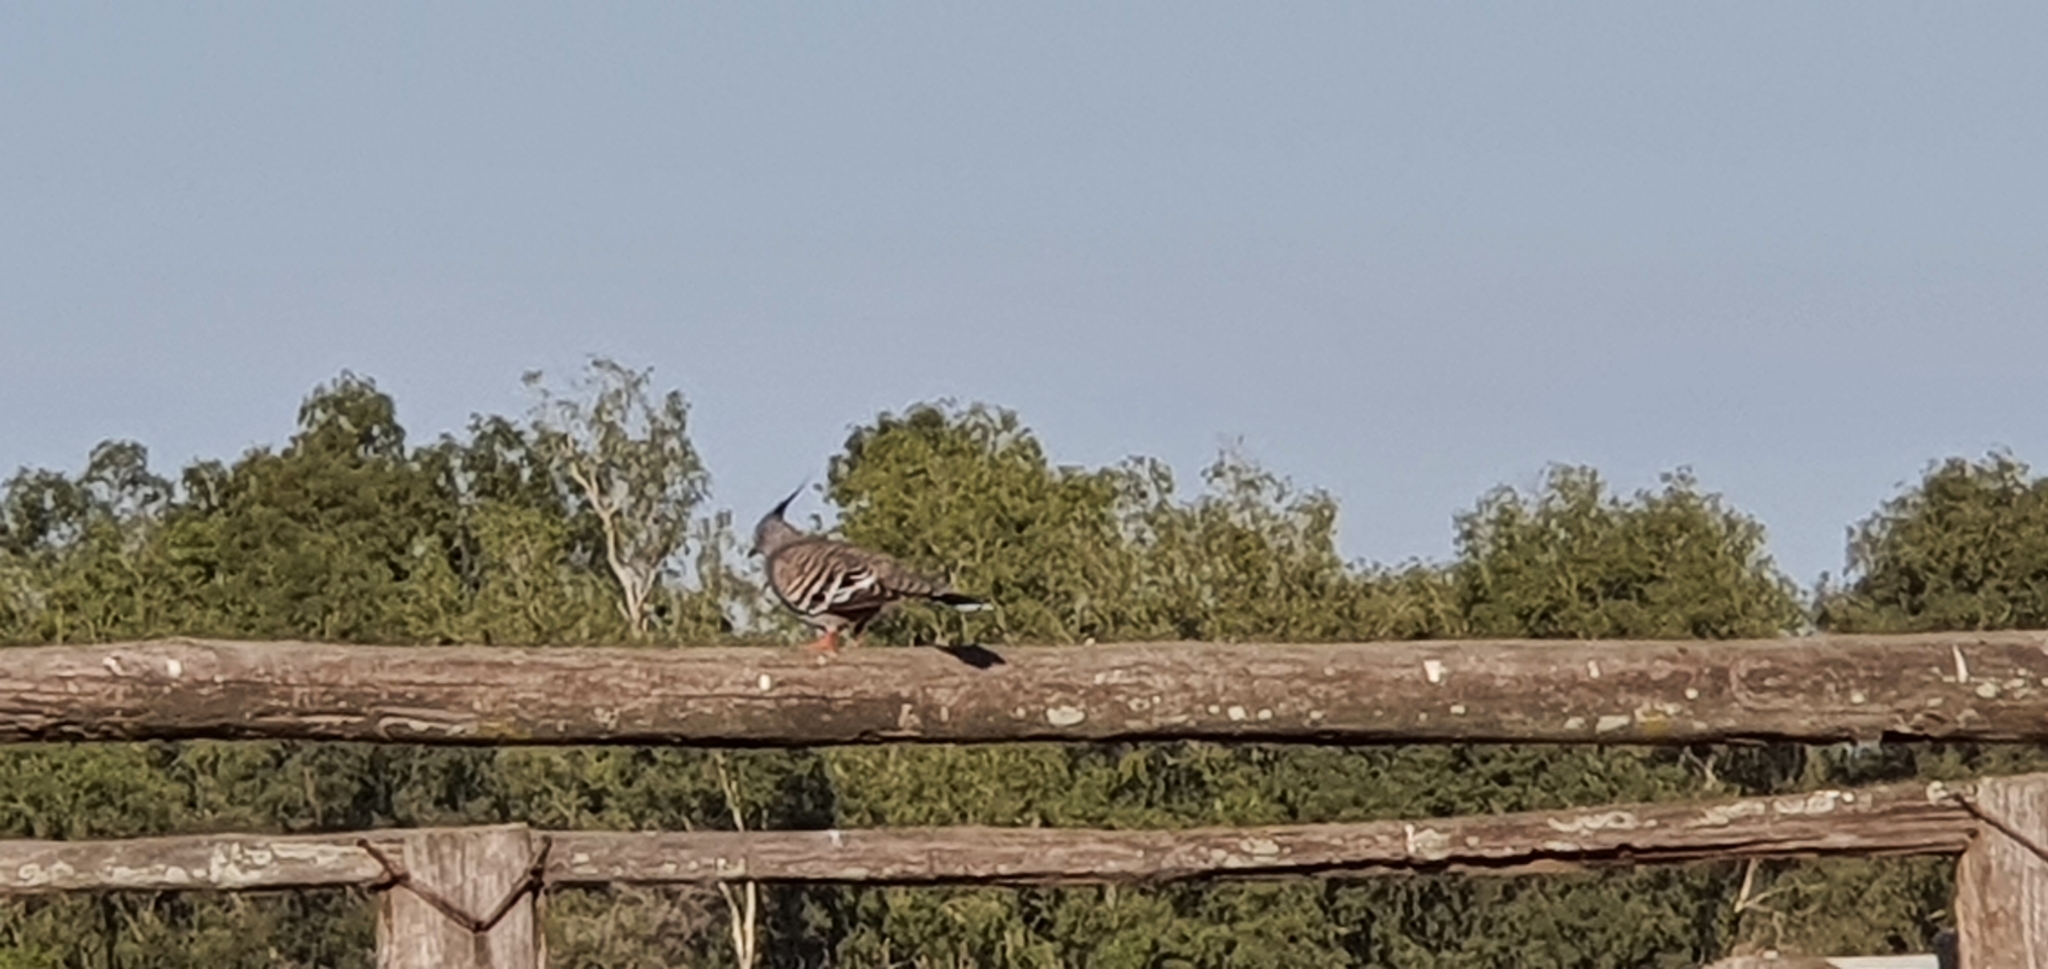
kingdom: Animalia
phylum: Chordata
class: Aves
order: Columbiformes
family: Columbidae
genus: Ocyphaps
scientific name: Ocyphaps lophotes
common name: Crested pigeon
